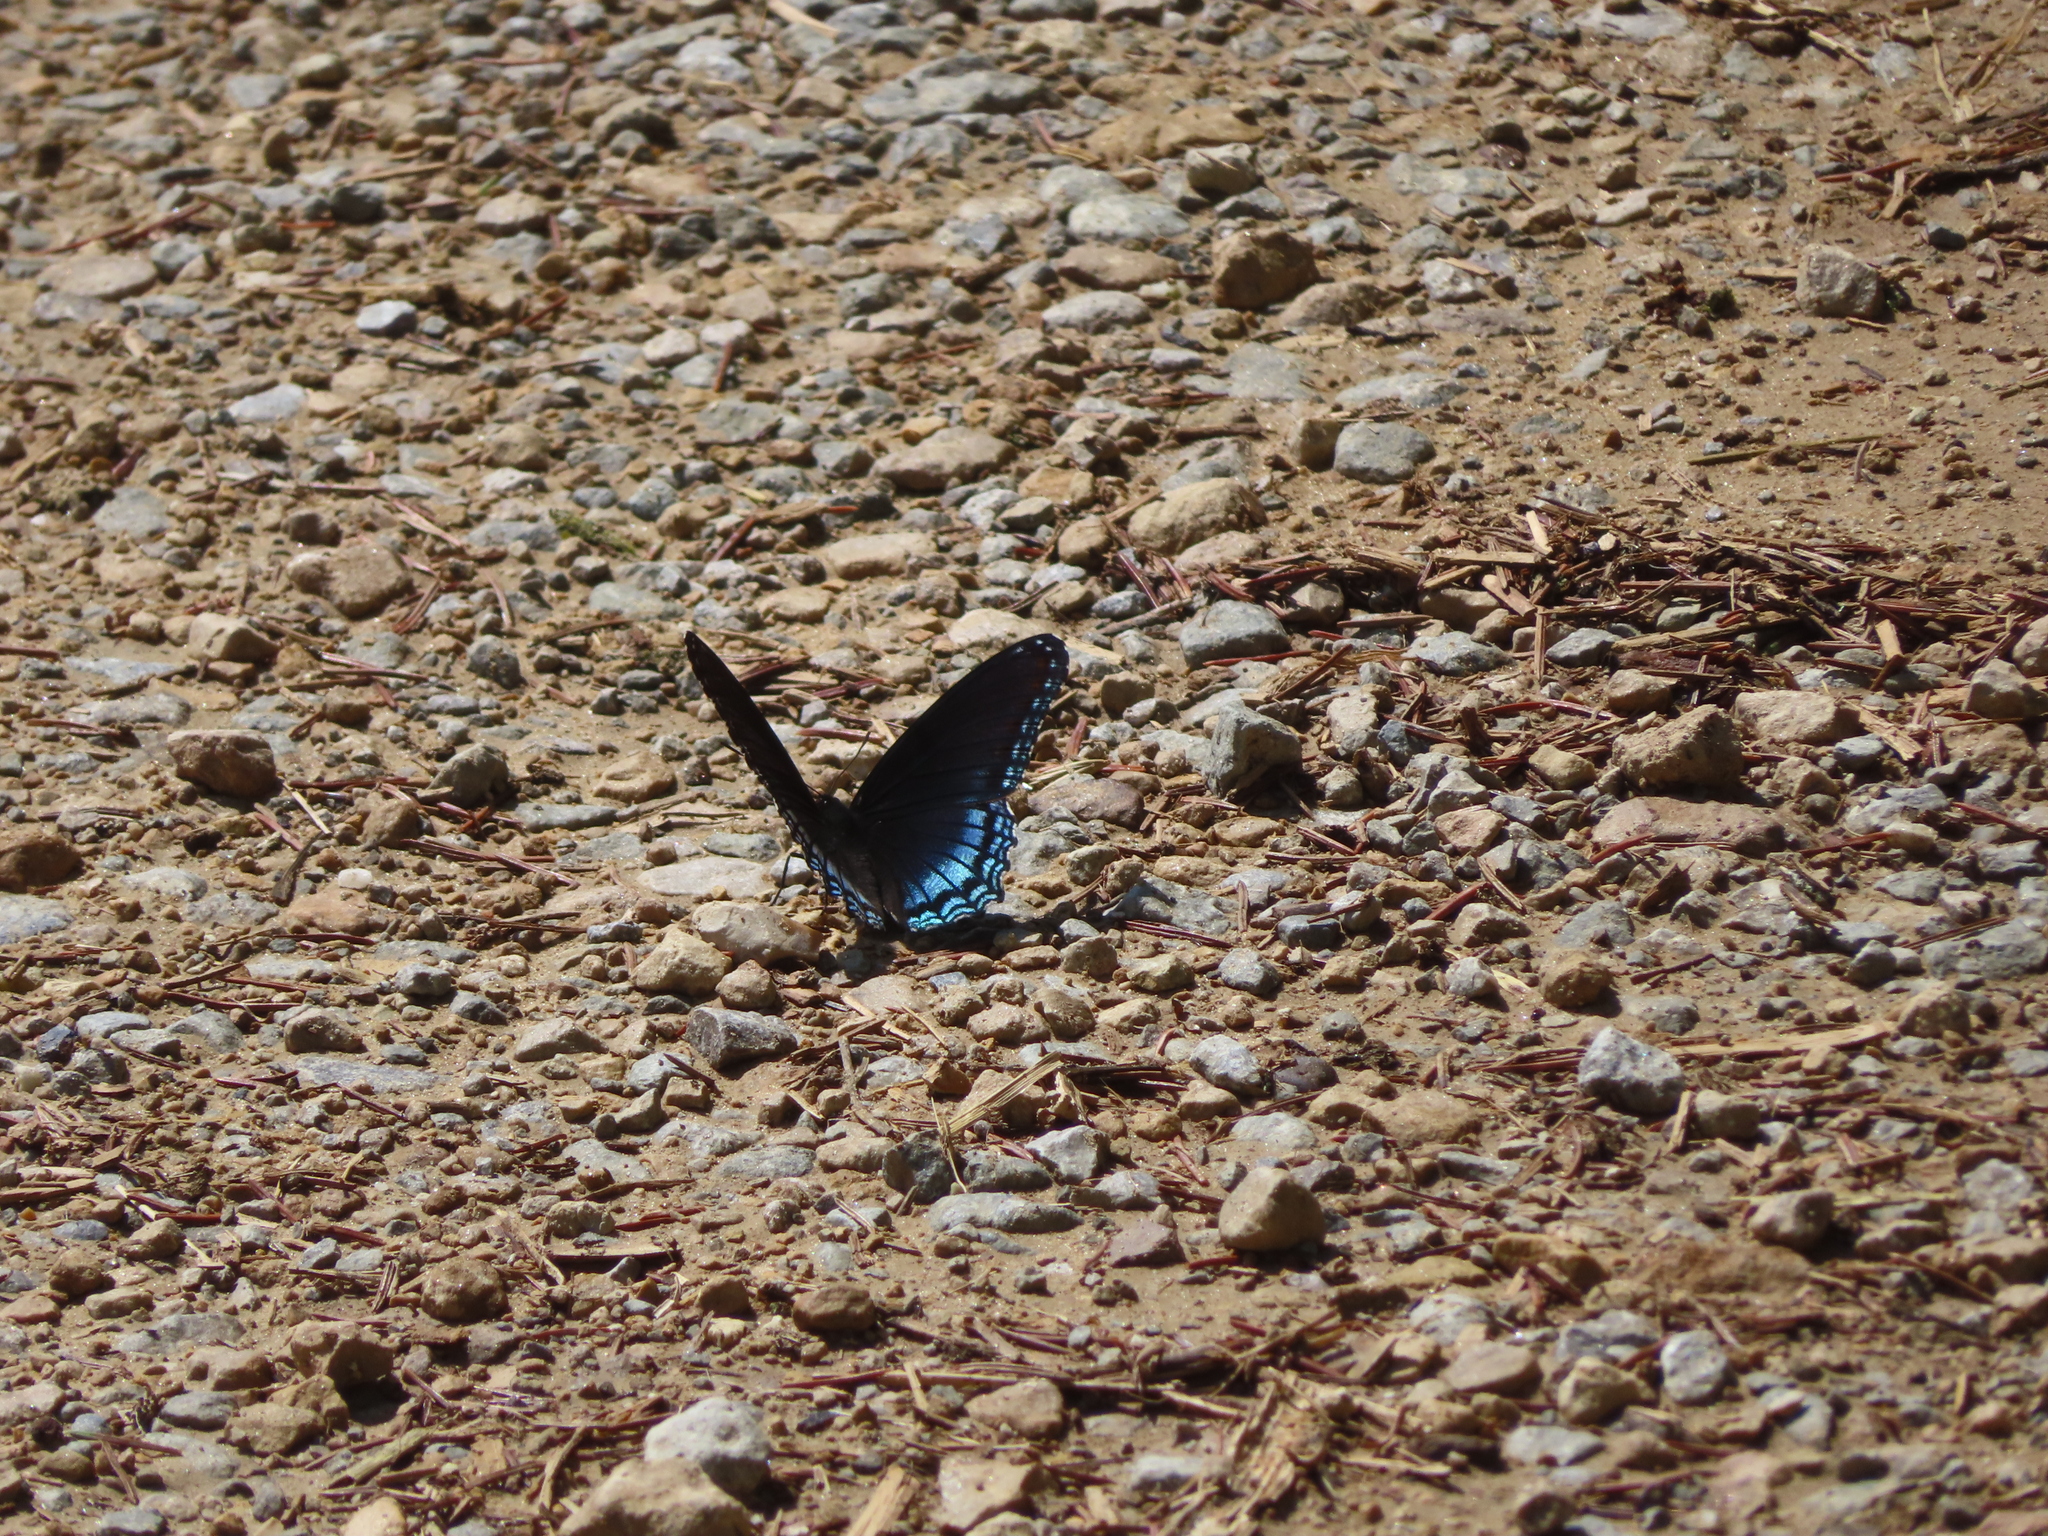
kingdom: Animalia
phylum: Arthropoda
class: Insecta
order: Lepidoptera
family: Nymphalidae
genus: Limenitis
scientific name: Limenitis astyanax
